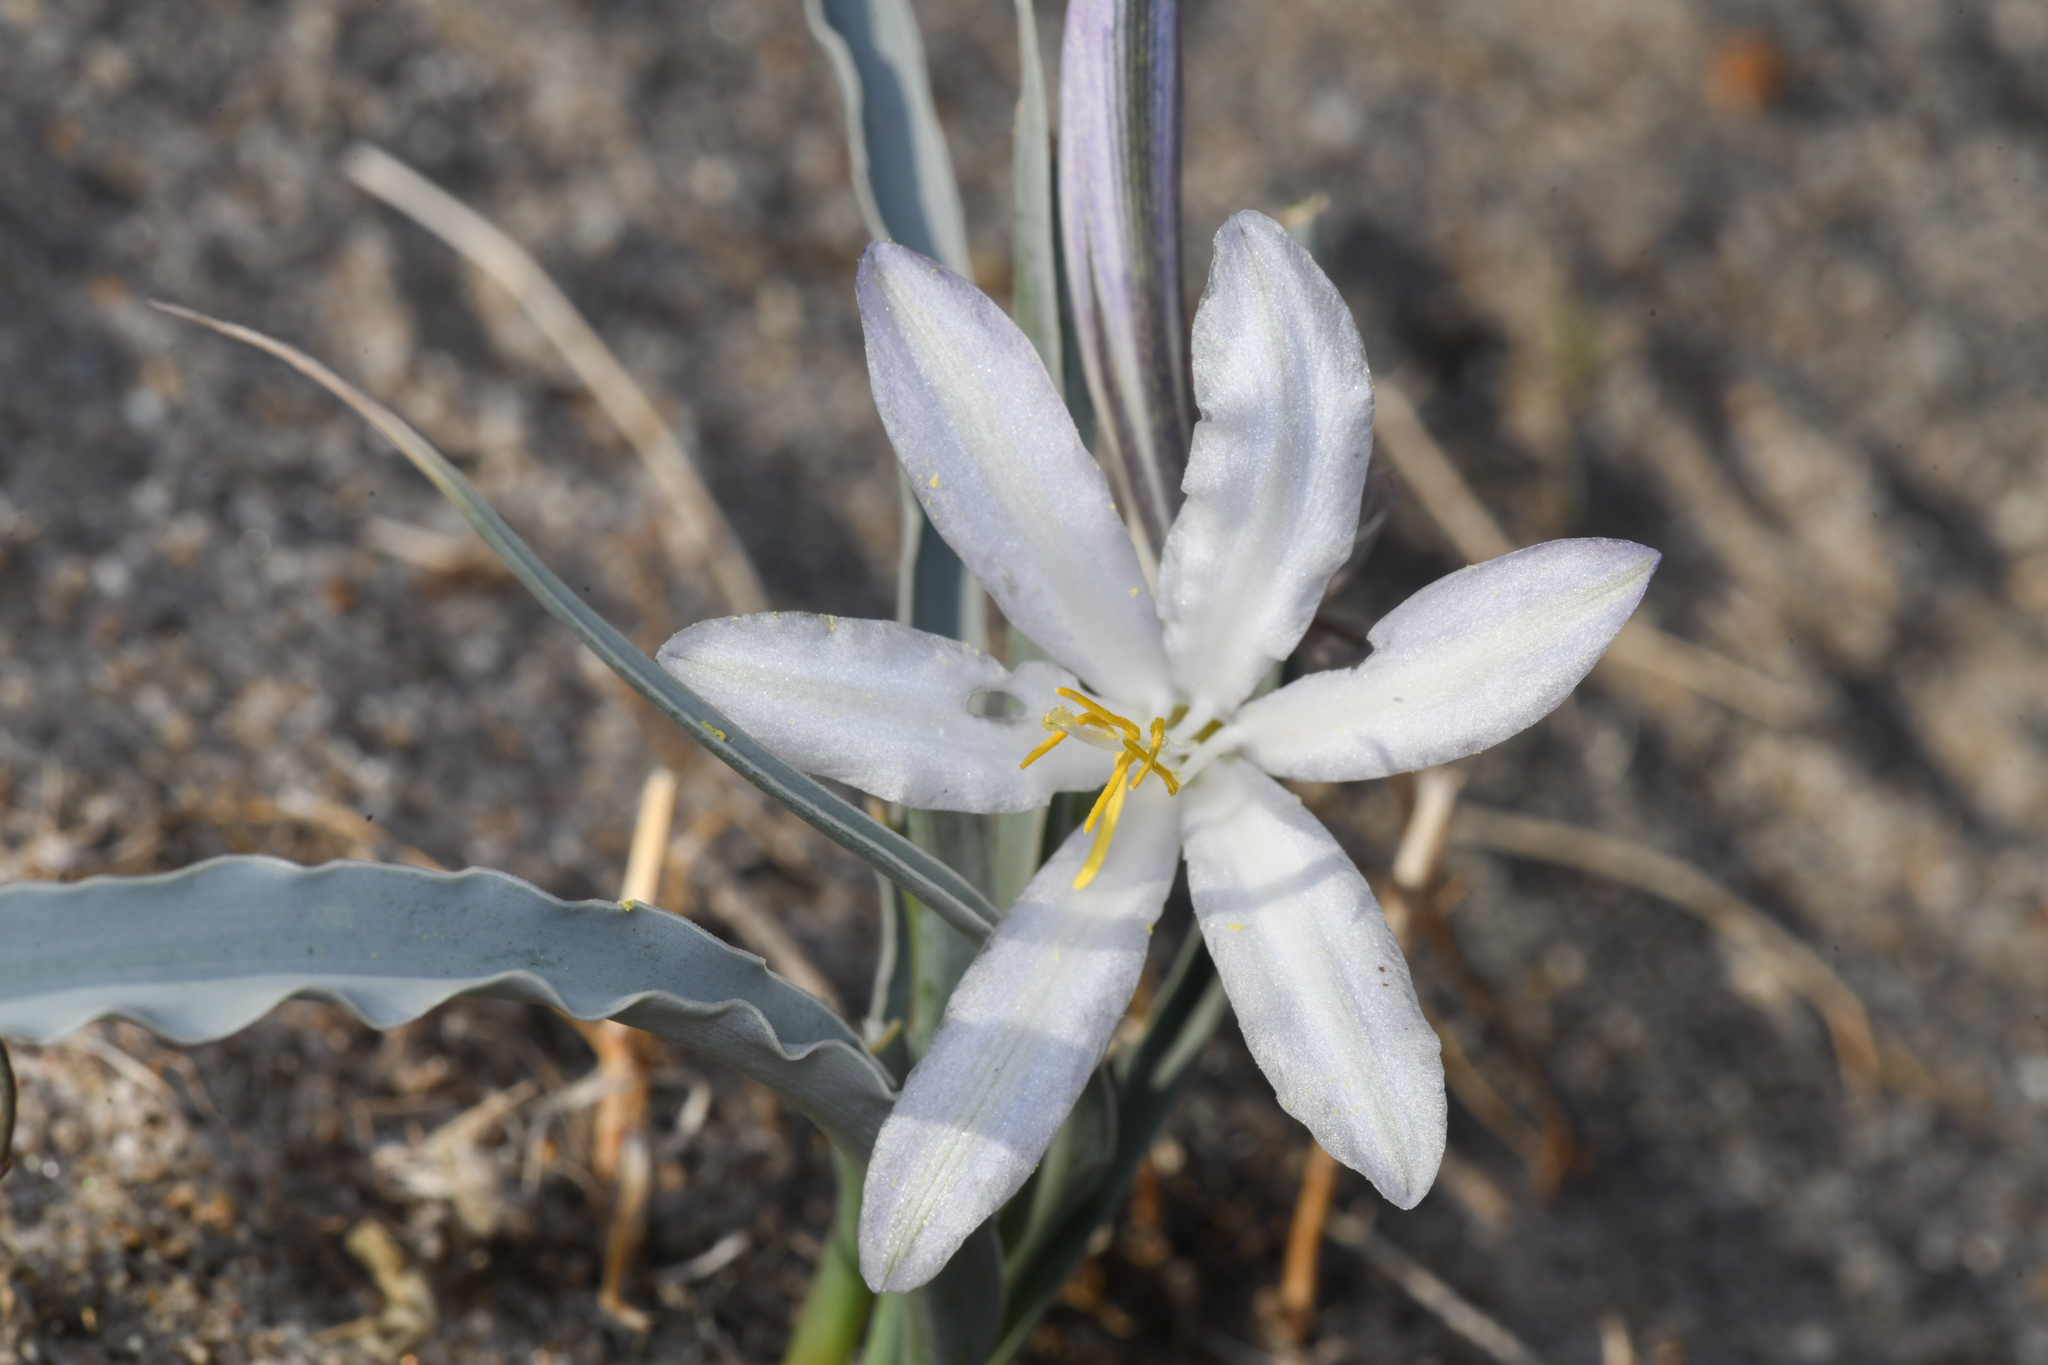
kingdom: Plantae
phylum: Tracheophyta
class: Liliopsida
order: Asparagales
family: Asparagaceae
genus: Hesperocallis
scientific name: Hesperocallis undulata
